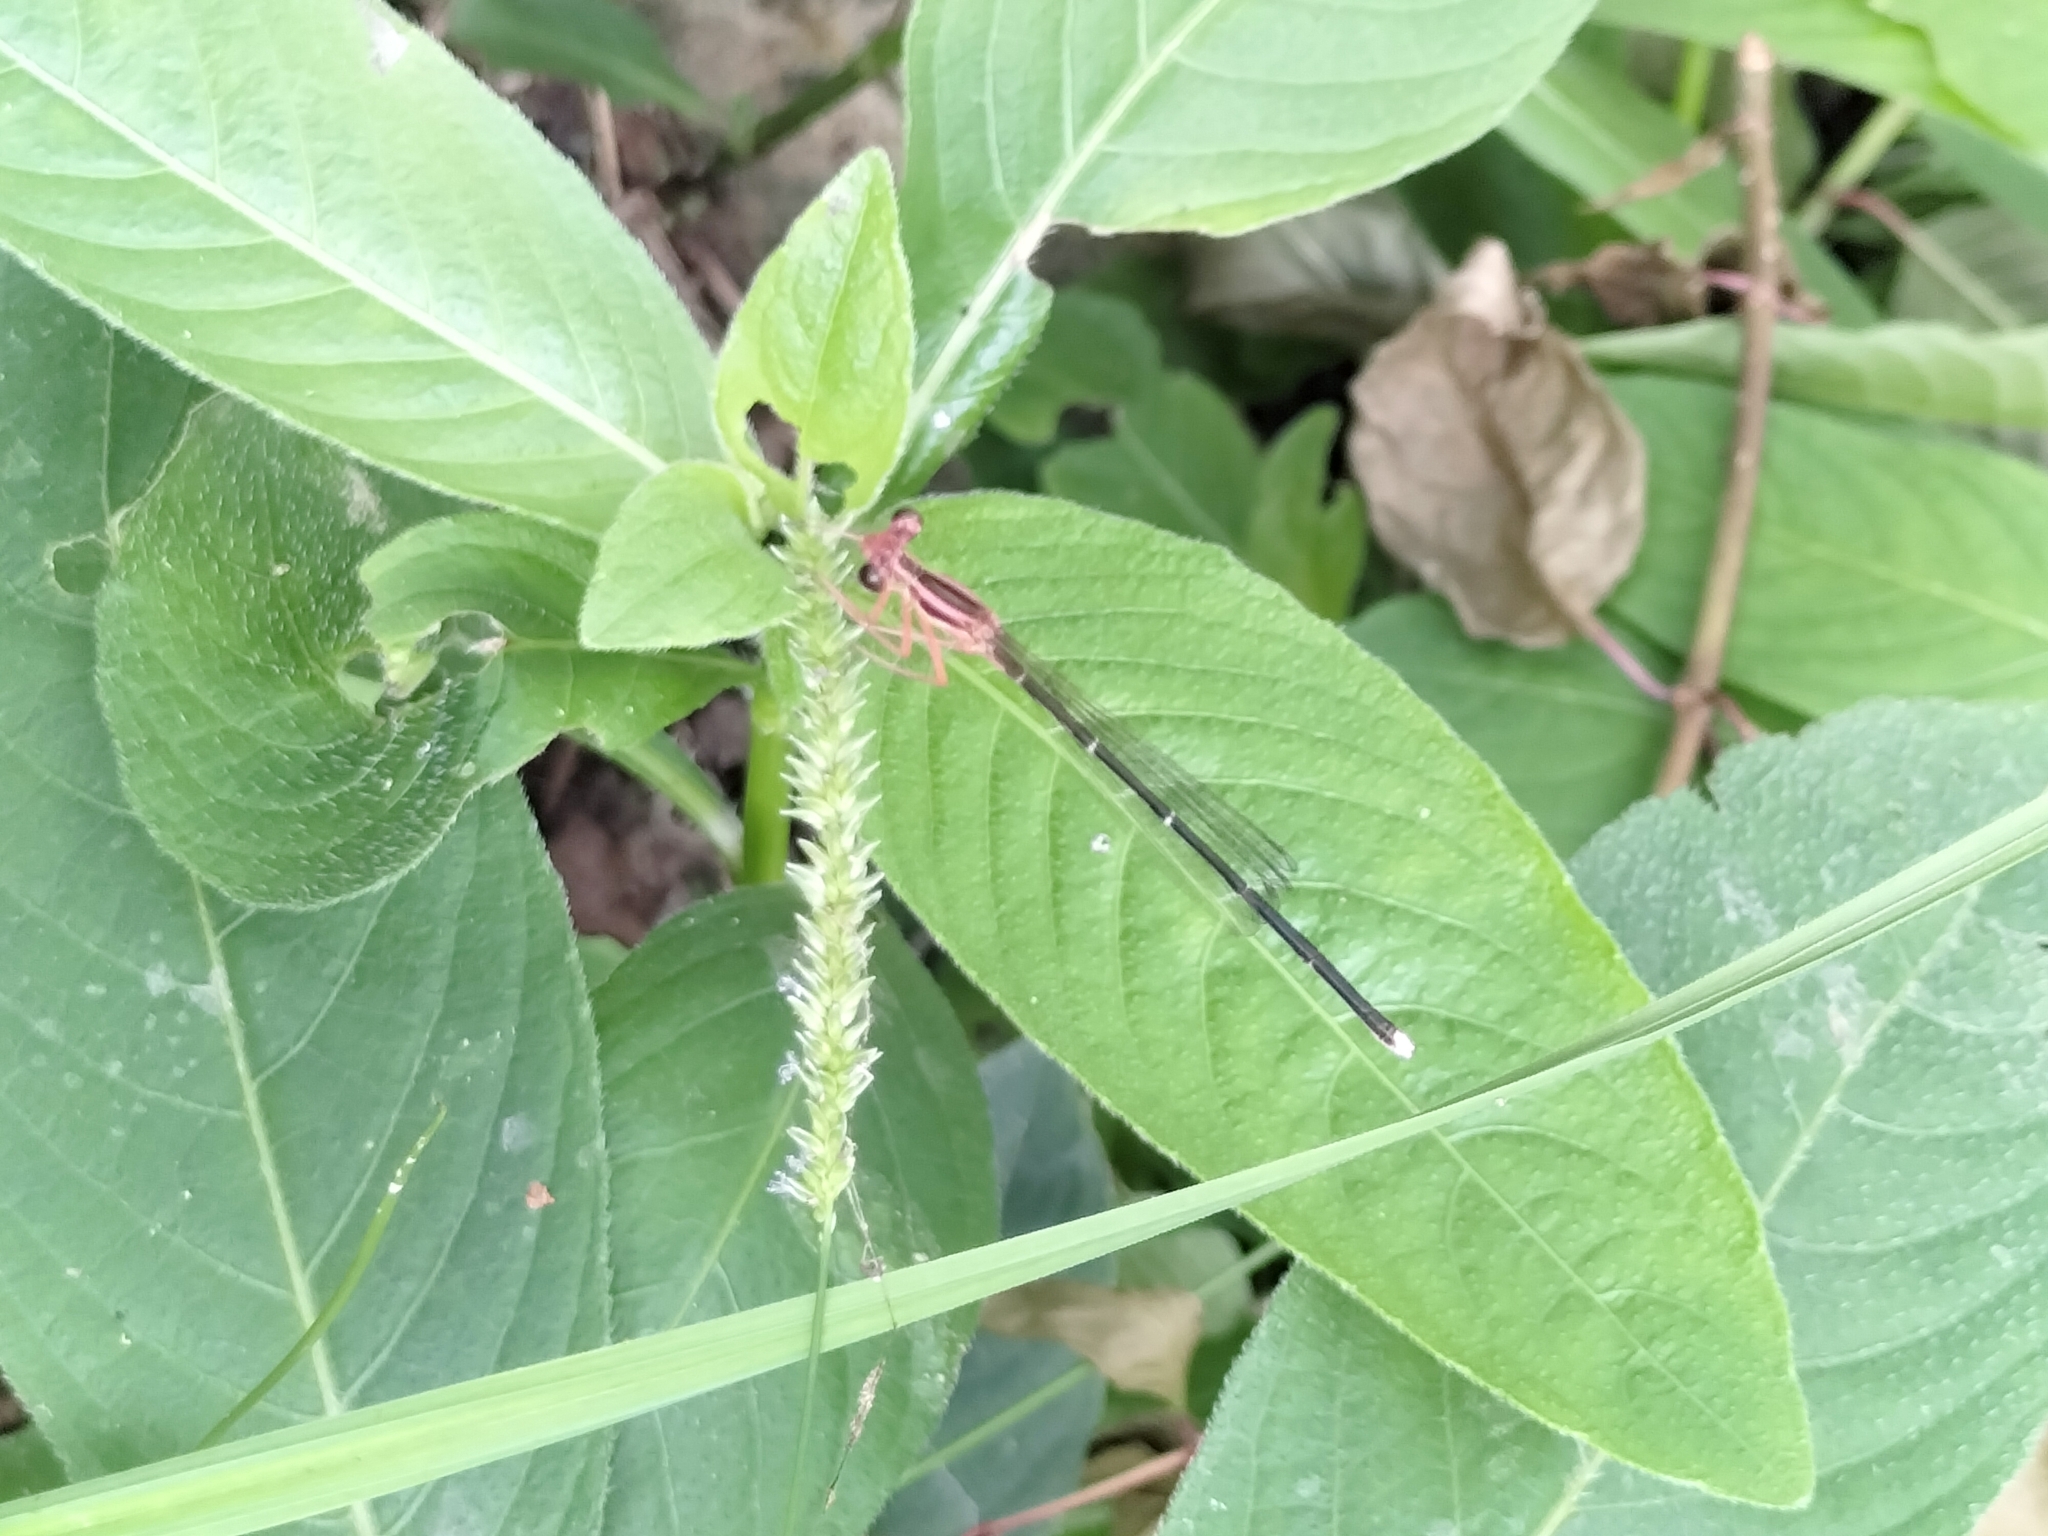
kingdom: Animalia
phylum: Arthropoda
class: Insecta
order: Odonata
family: Platycnemididae
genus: Pseudocopera
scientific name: Pseudocopera ciliata
